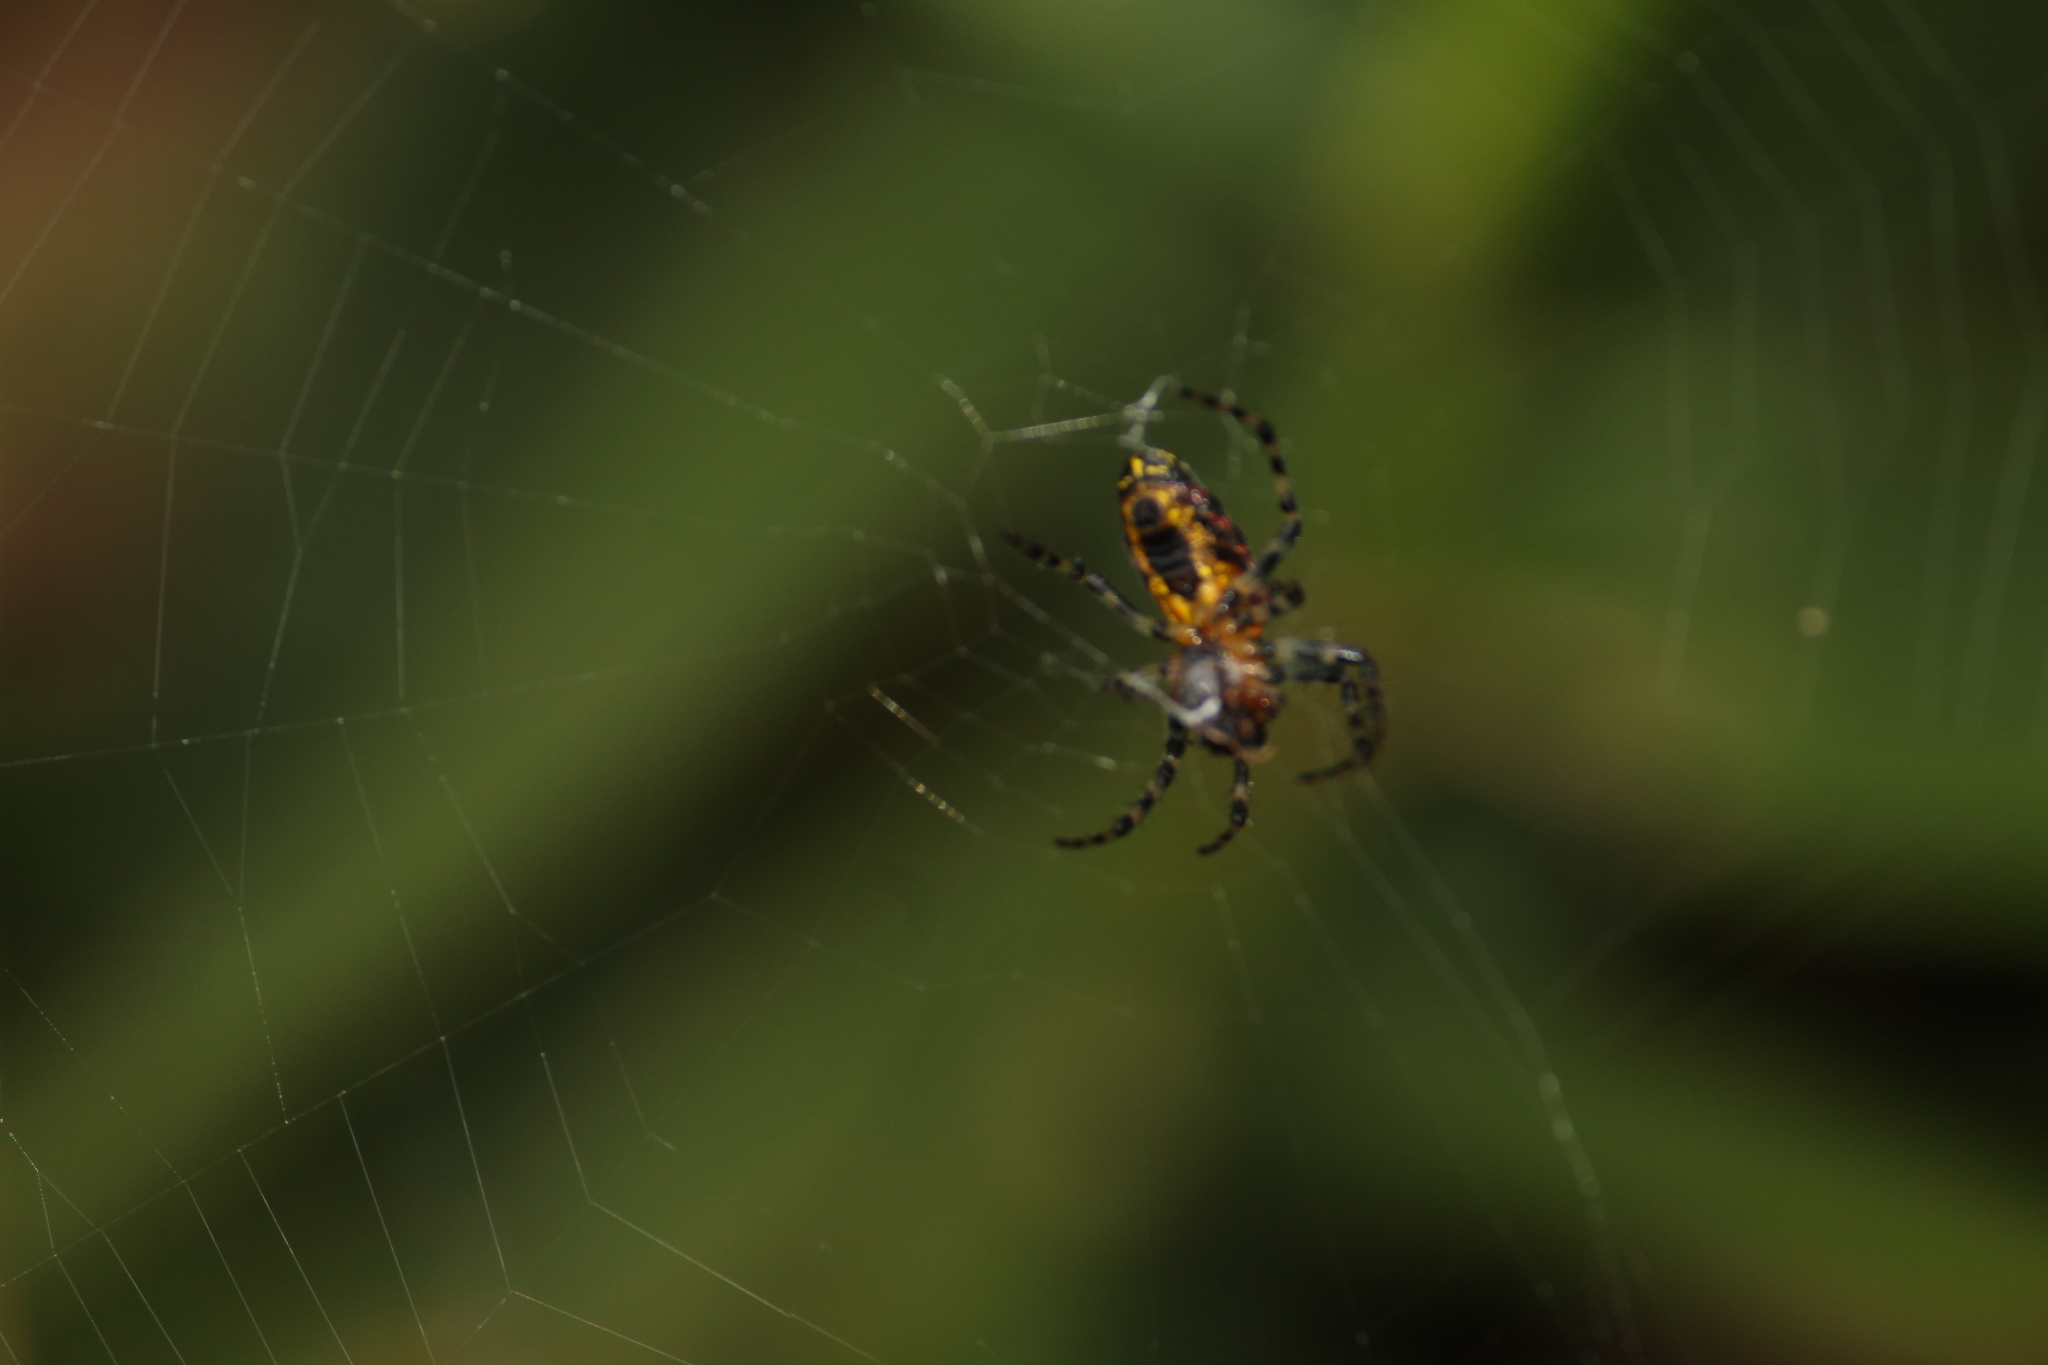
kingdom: Animalia
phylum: Arthropoda
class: Arachnida
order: Araneae
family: Araneidae
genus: Alpaida
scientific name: Alpaida grayi
